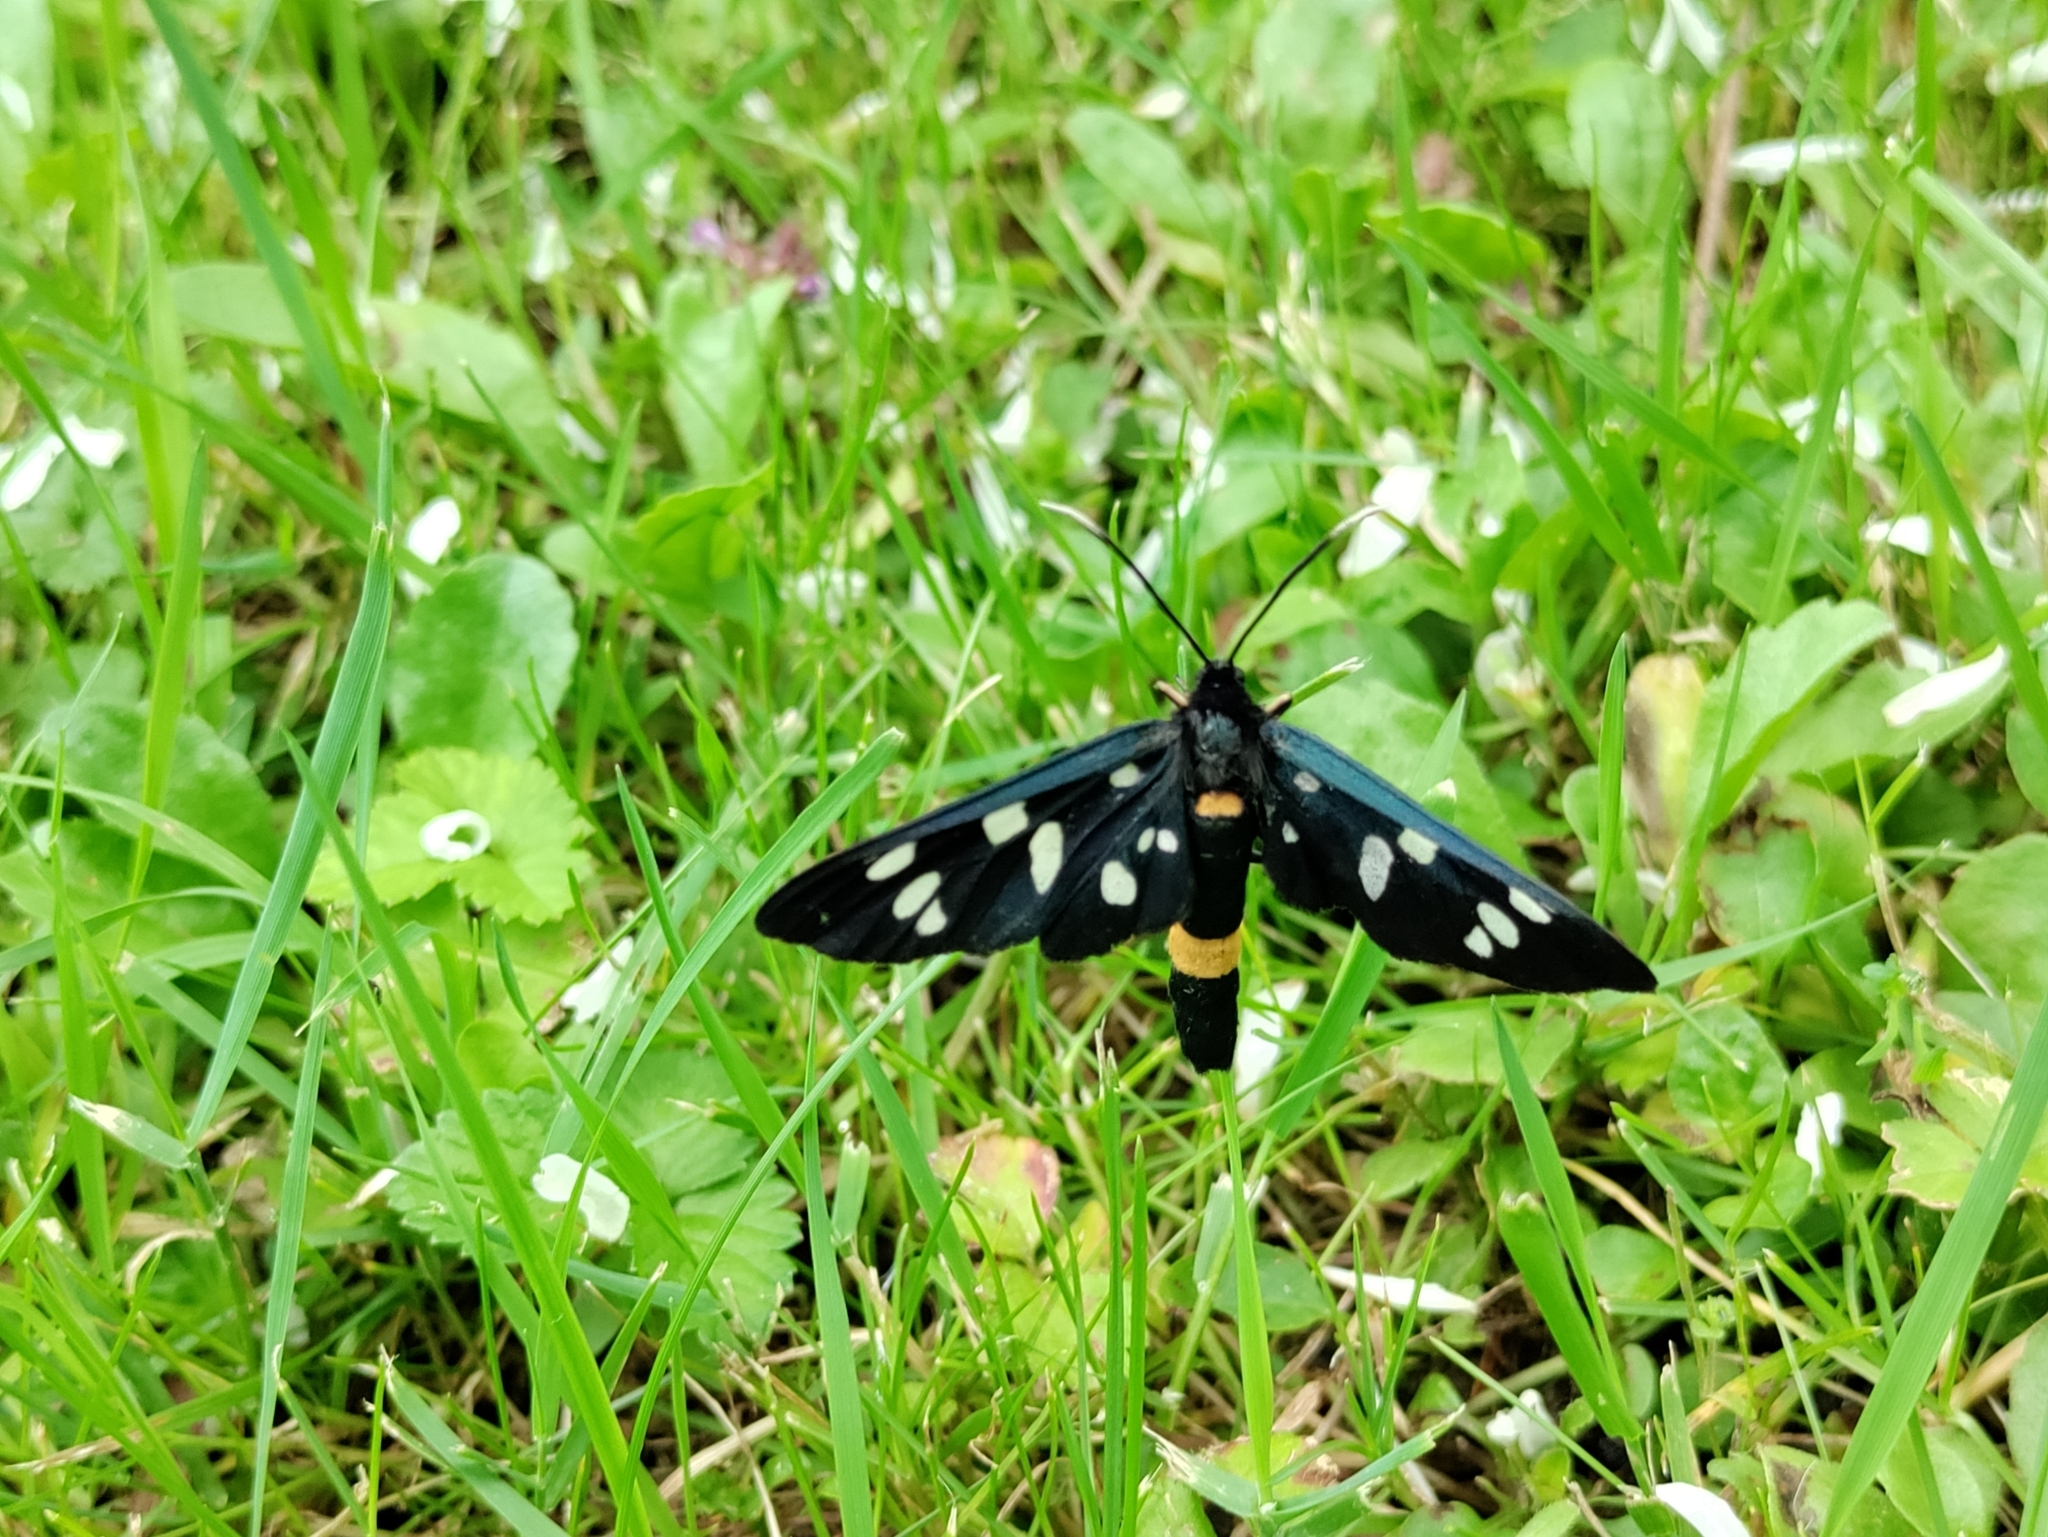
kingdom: Animalia
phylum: Arthropoda
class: Insecta
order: Lepidoptera
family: Erebidae
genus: Amata
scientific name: Amata phegea
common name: Nine-spotted
